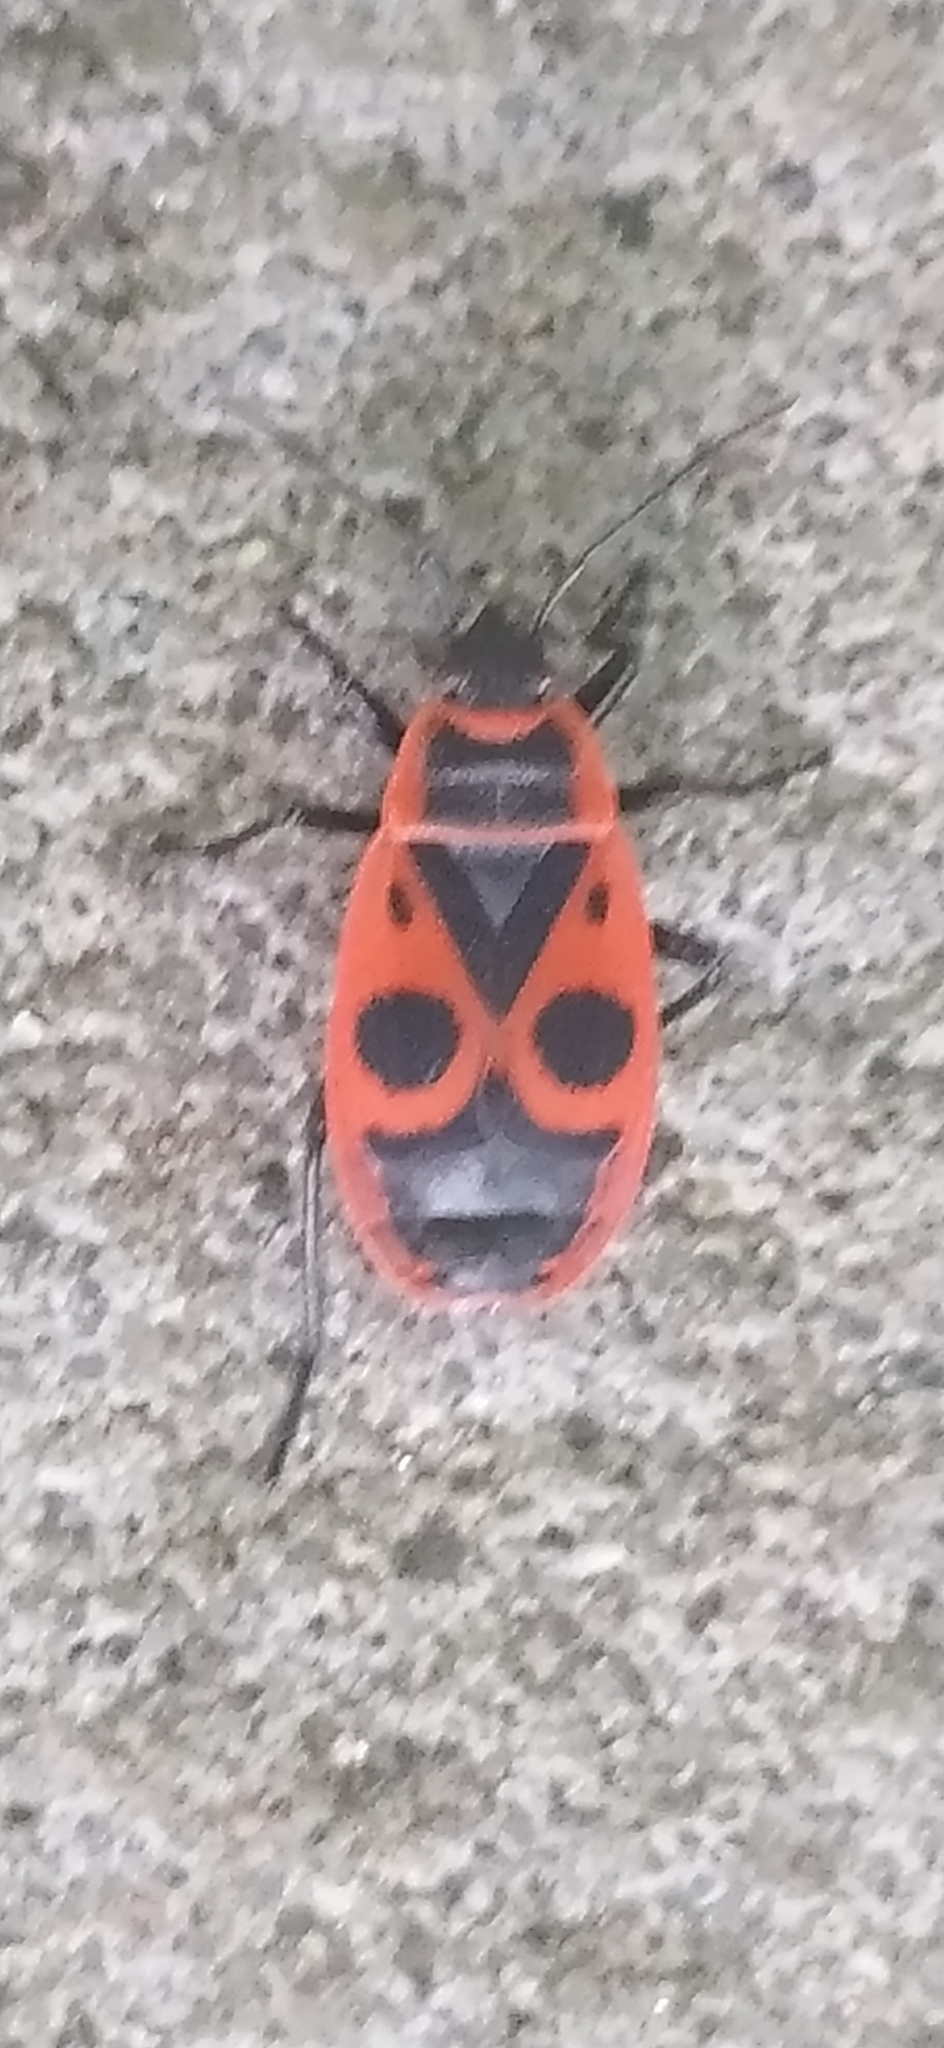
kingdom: Animalia
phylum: Arthropoda
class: Insecta
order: Hemiptera
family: Pyrrhocoridae
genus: Pyrrhocoris
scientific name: Pyrrhocoris apterus
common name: Firebug
